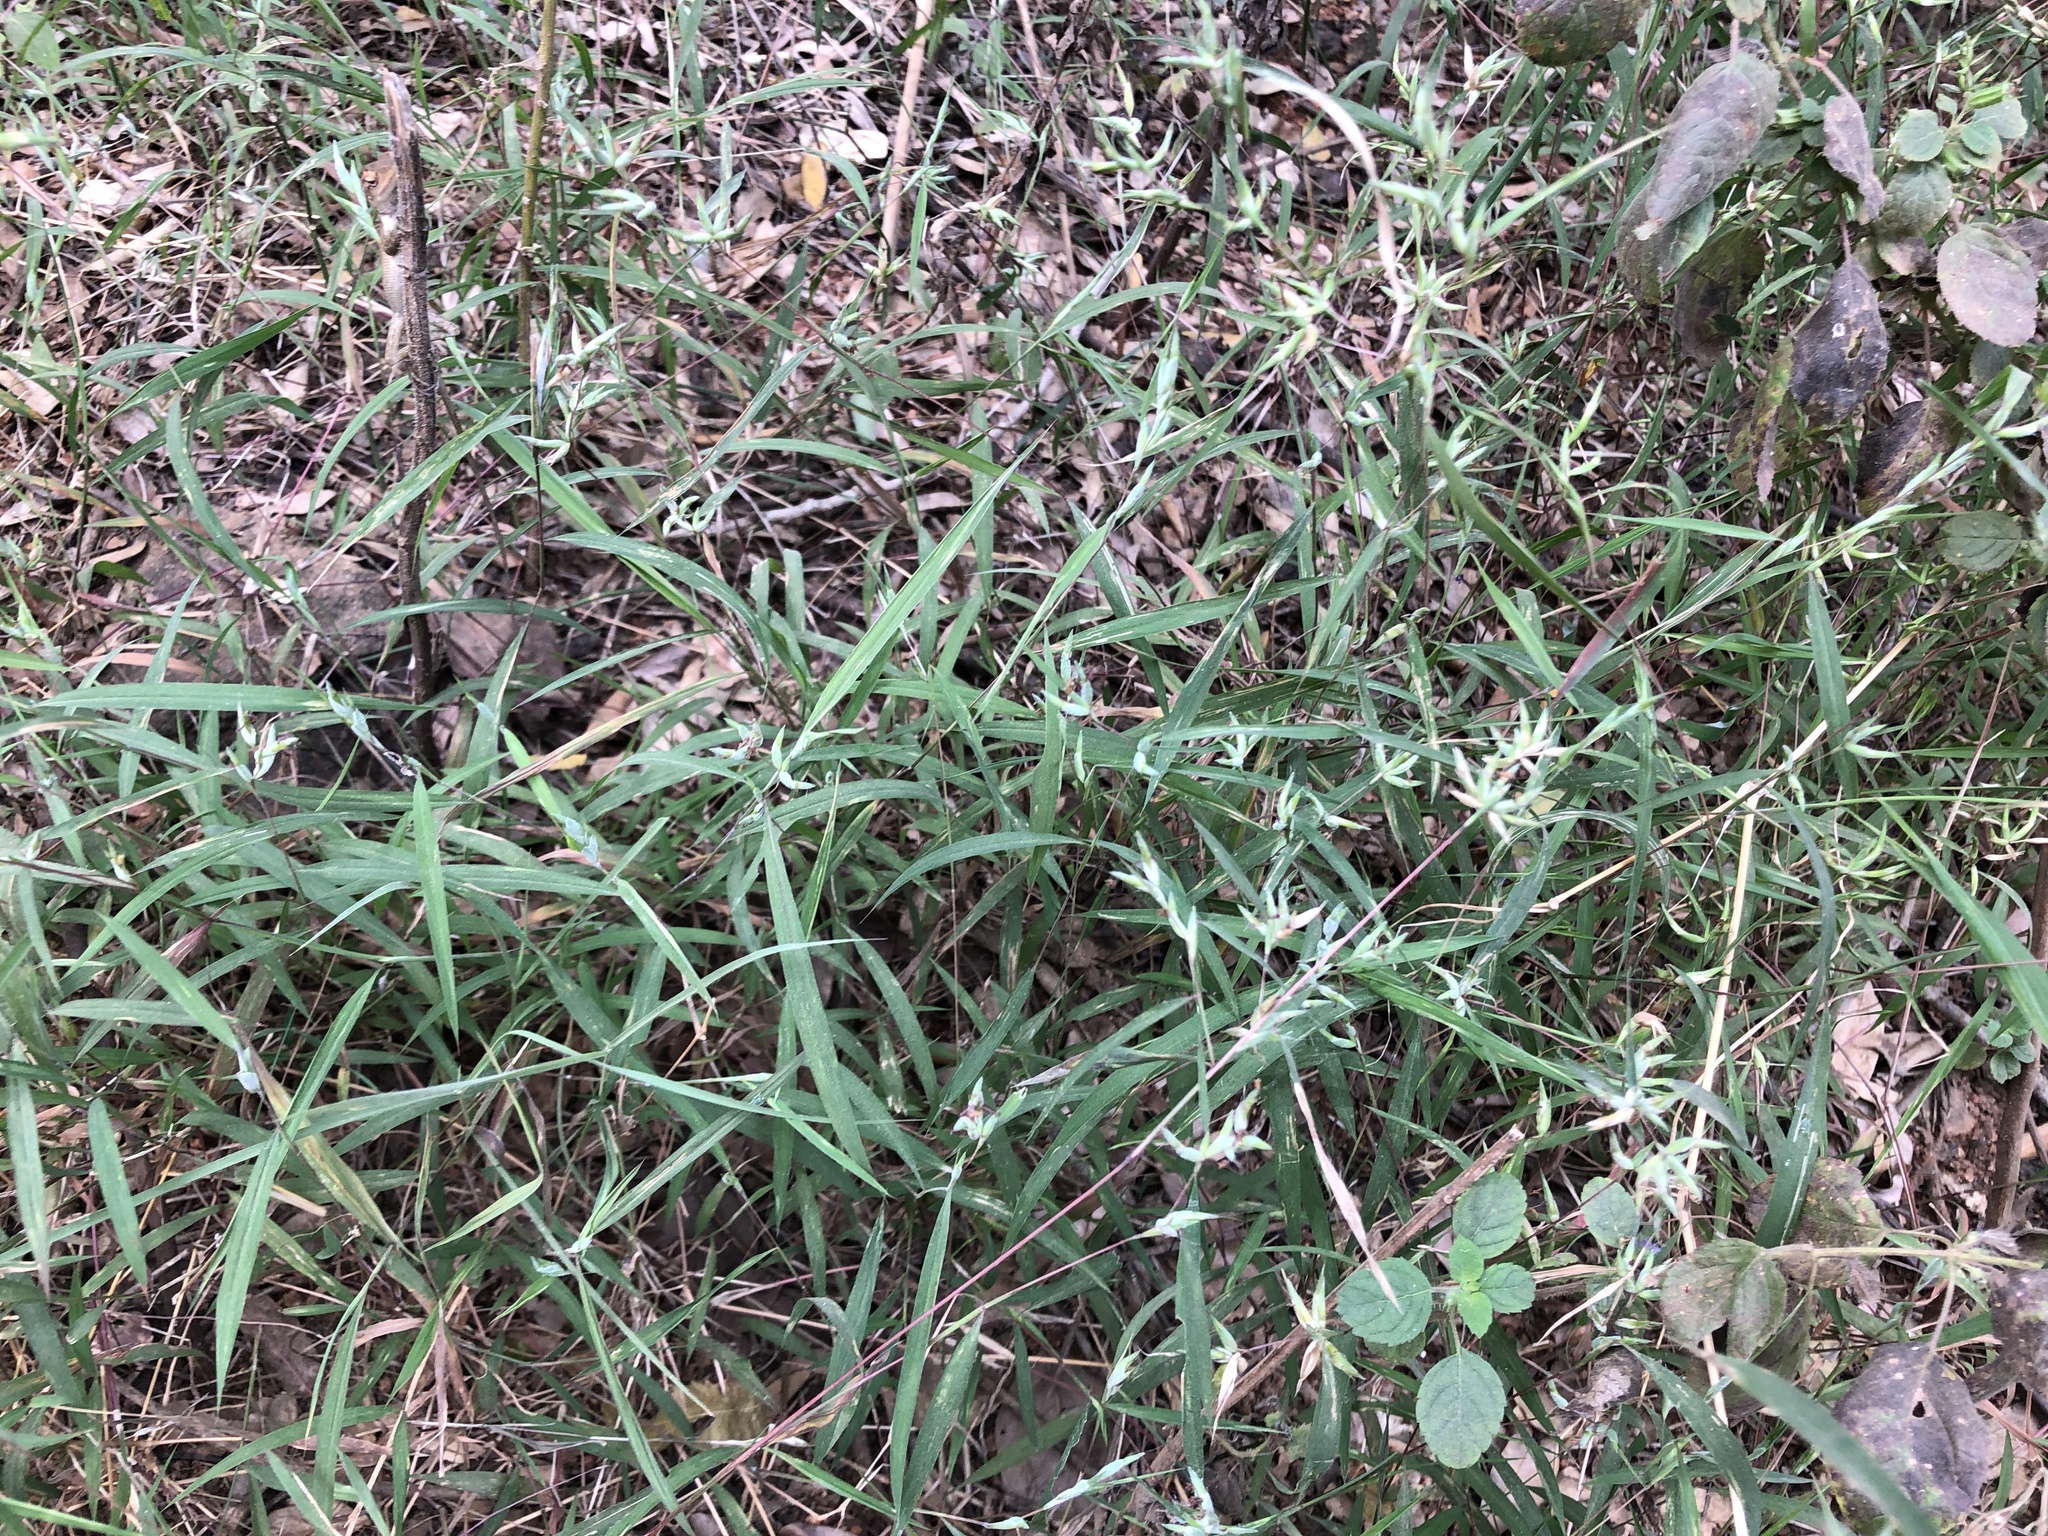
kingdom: Plantae
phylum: Tracheophyta
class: Liliopsida
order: Poales
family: Poaceae
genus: Apluda
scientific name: Apluda mutica
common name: Mauritian grass
